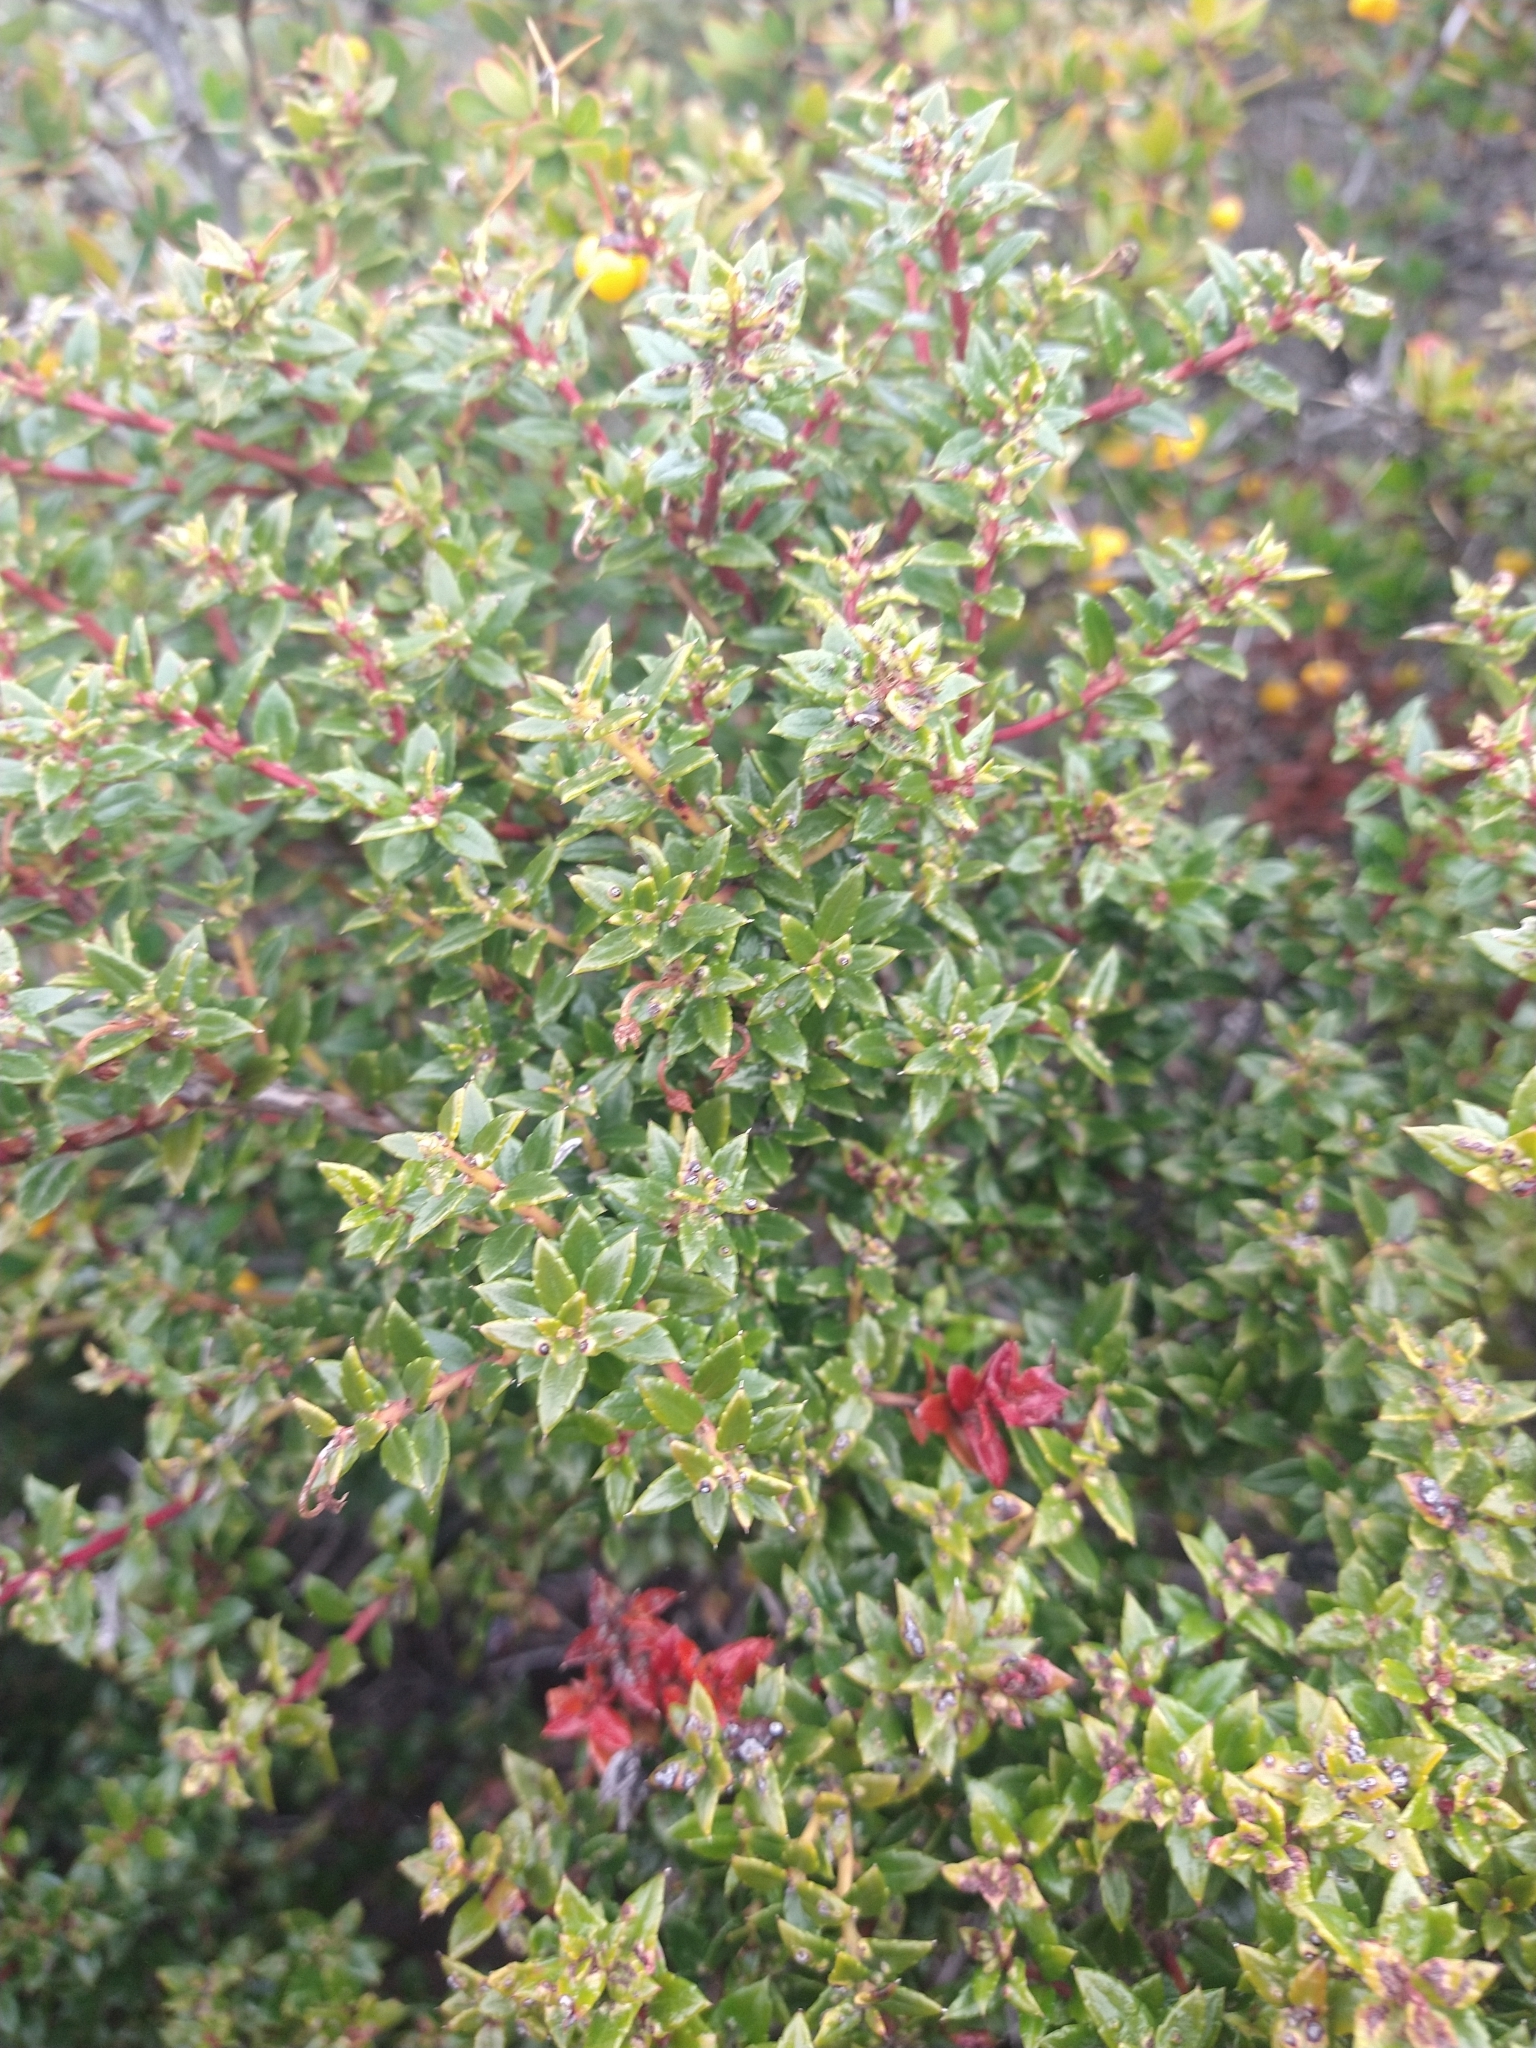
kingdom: Plantae
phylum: Tracheophyta
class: Magnoliopsida
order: Ericales
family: Ericaceae
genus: Gaultheria
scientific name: Gaultheria mucronata
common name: Prickly heath
